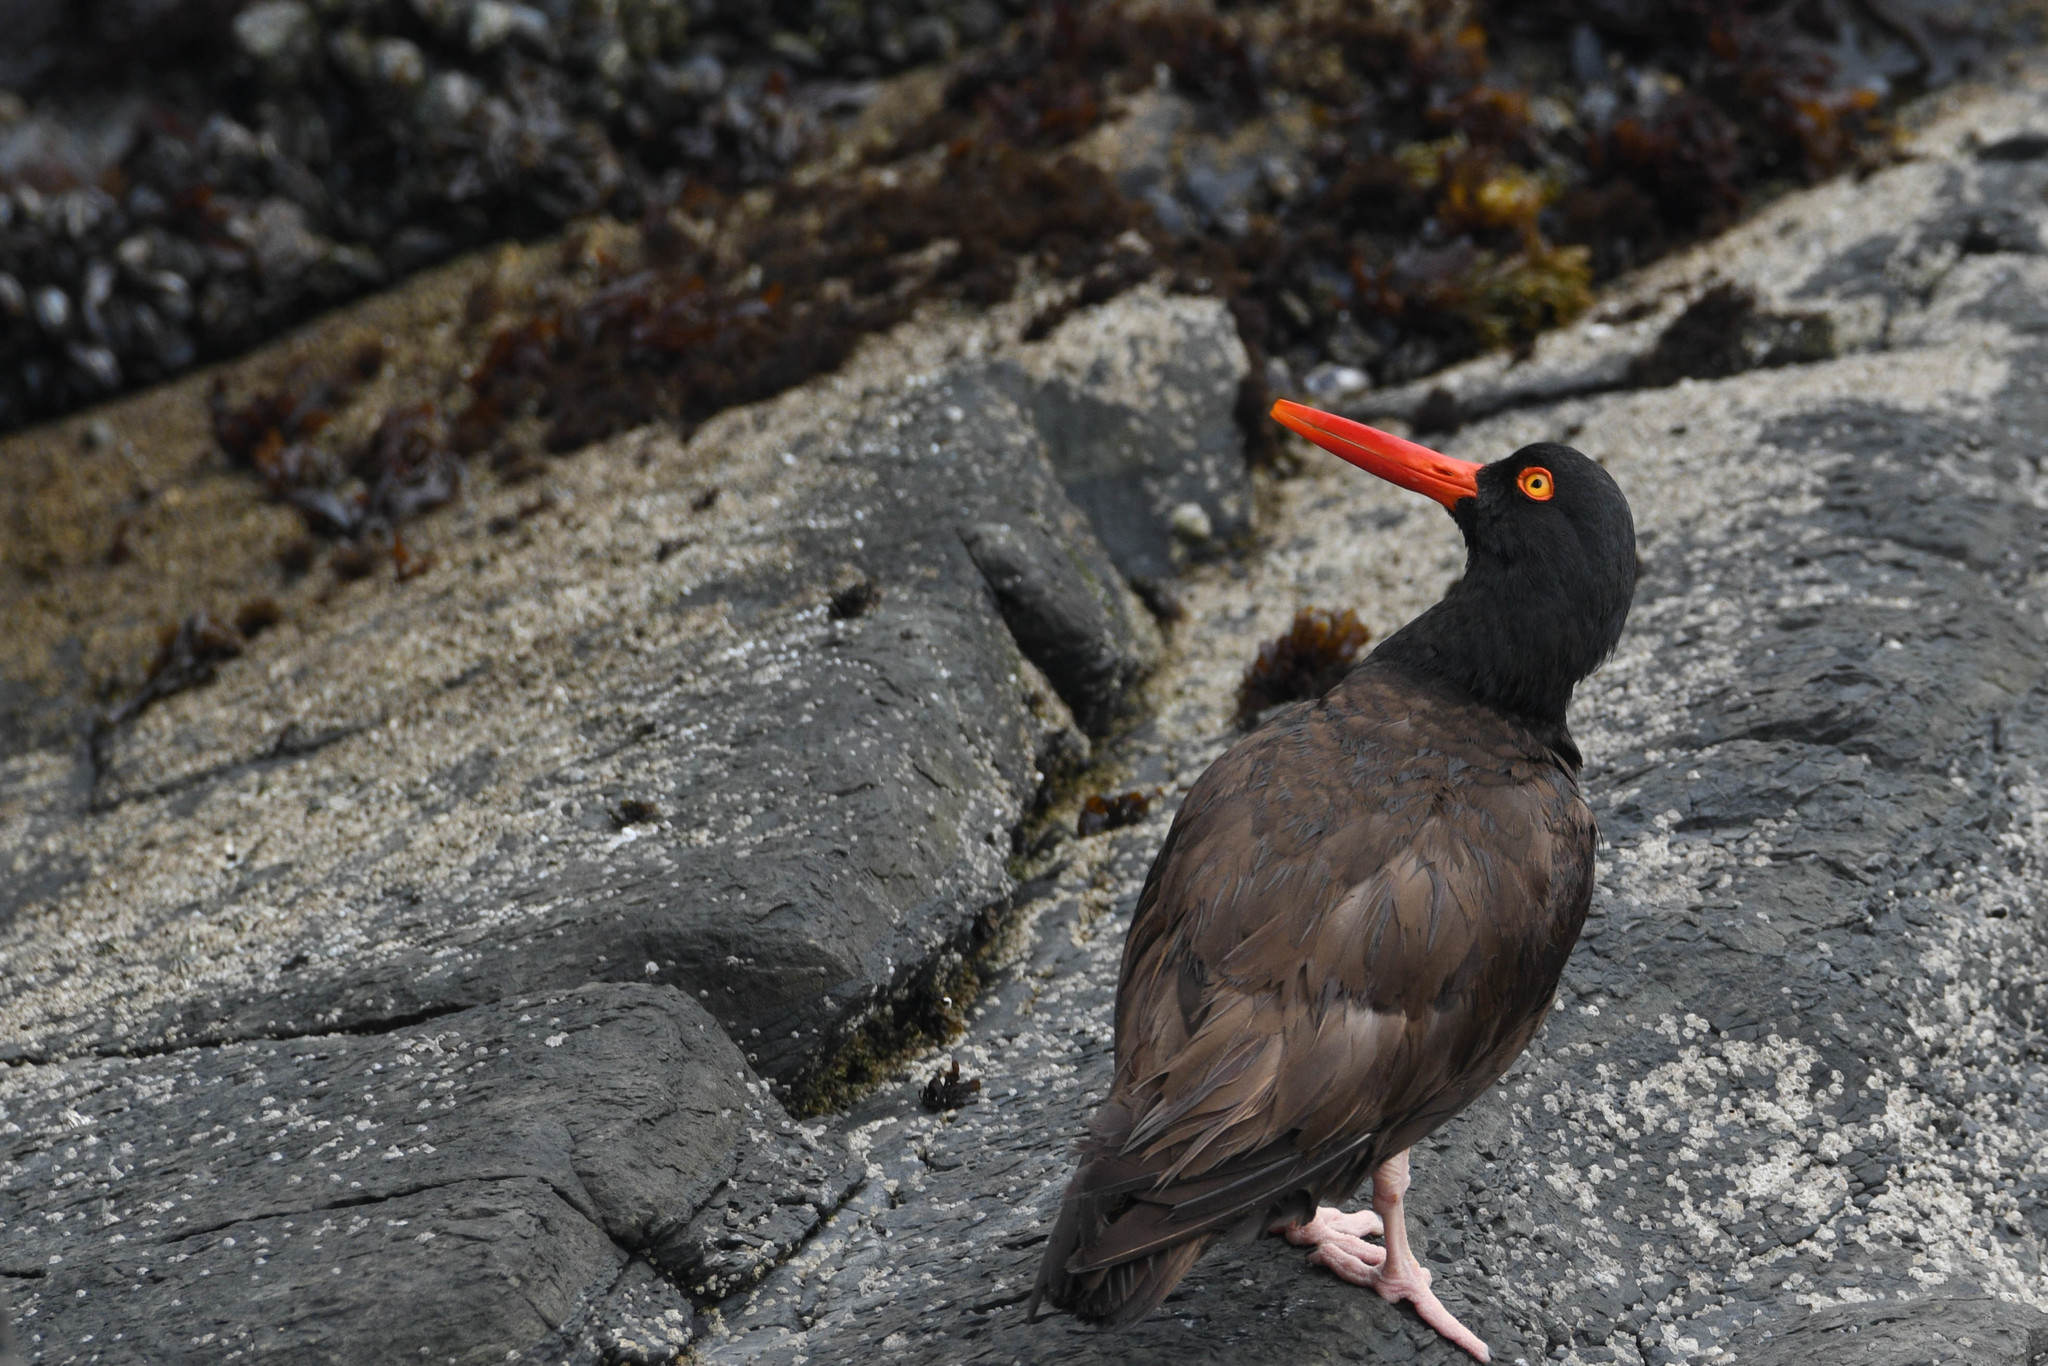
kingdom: Animalia
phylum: Chordata
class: Aves
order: Charadriiformes
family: Haematopodidae
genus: Haematopus
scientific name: Haematopus bachmani
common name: Black oystercatcher
